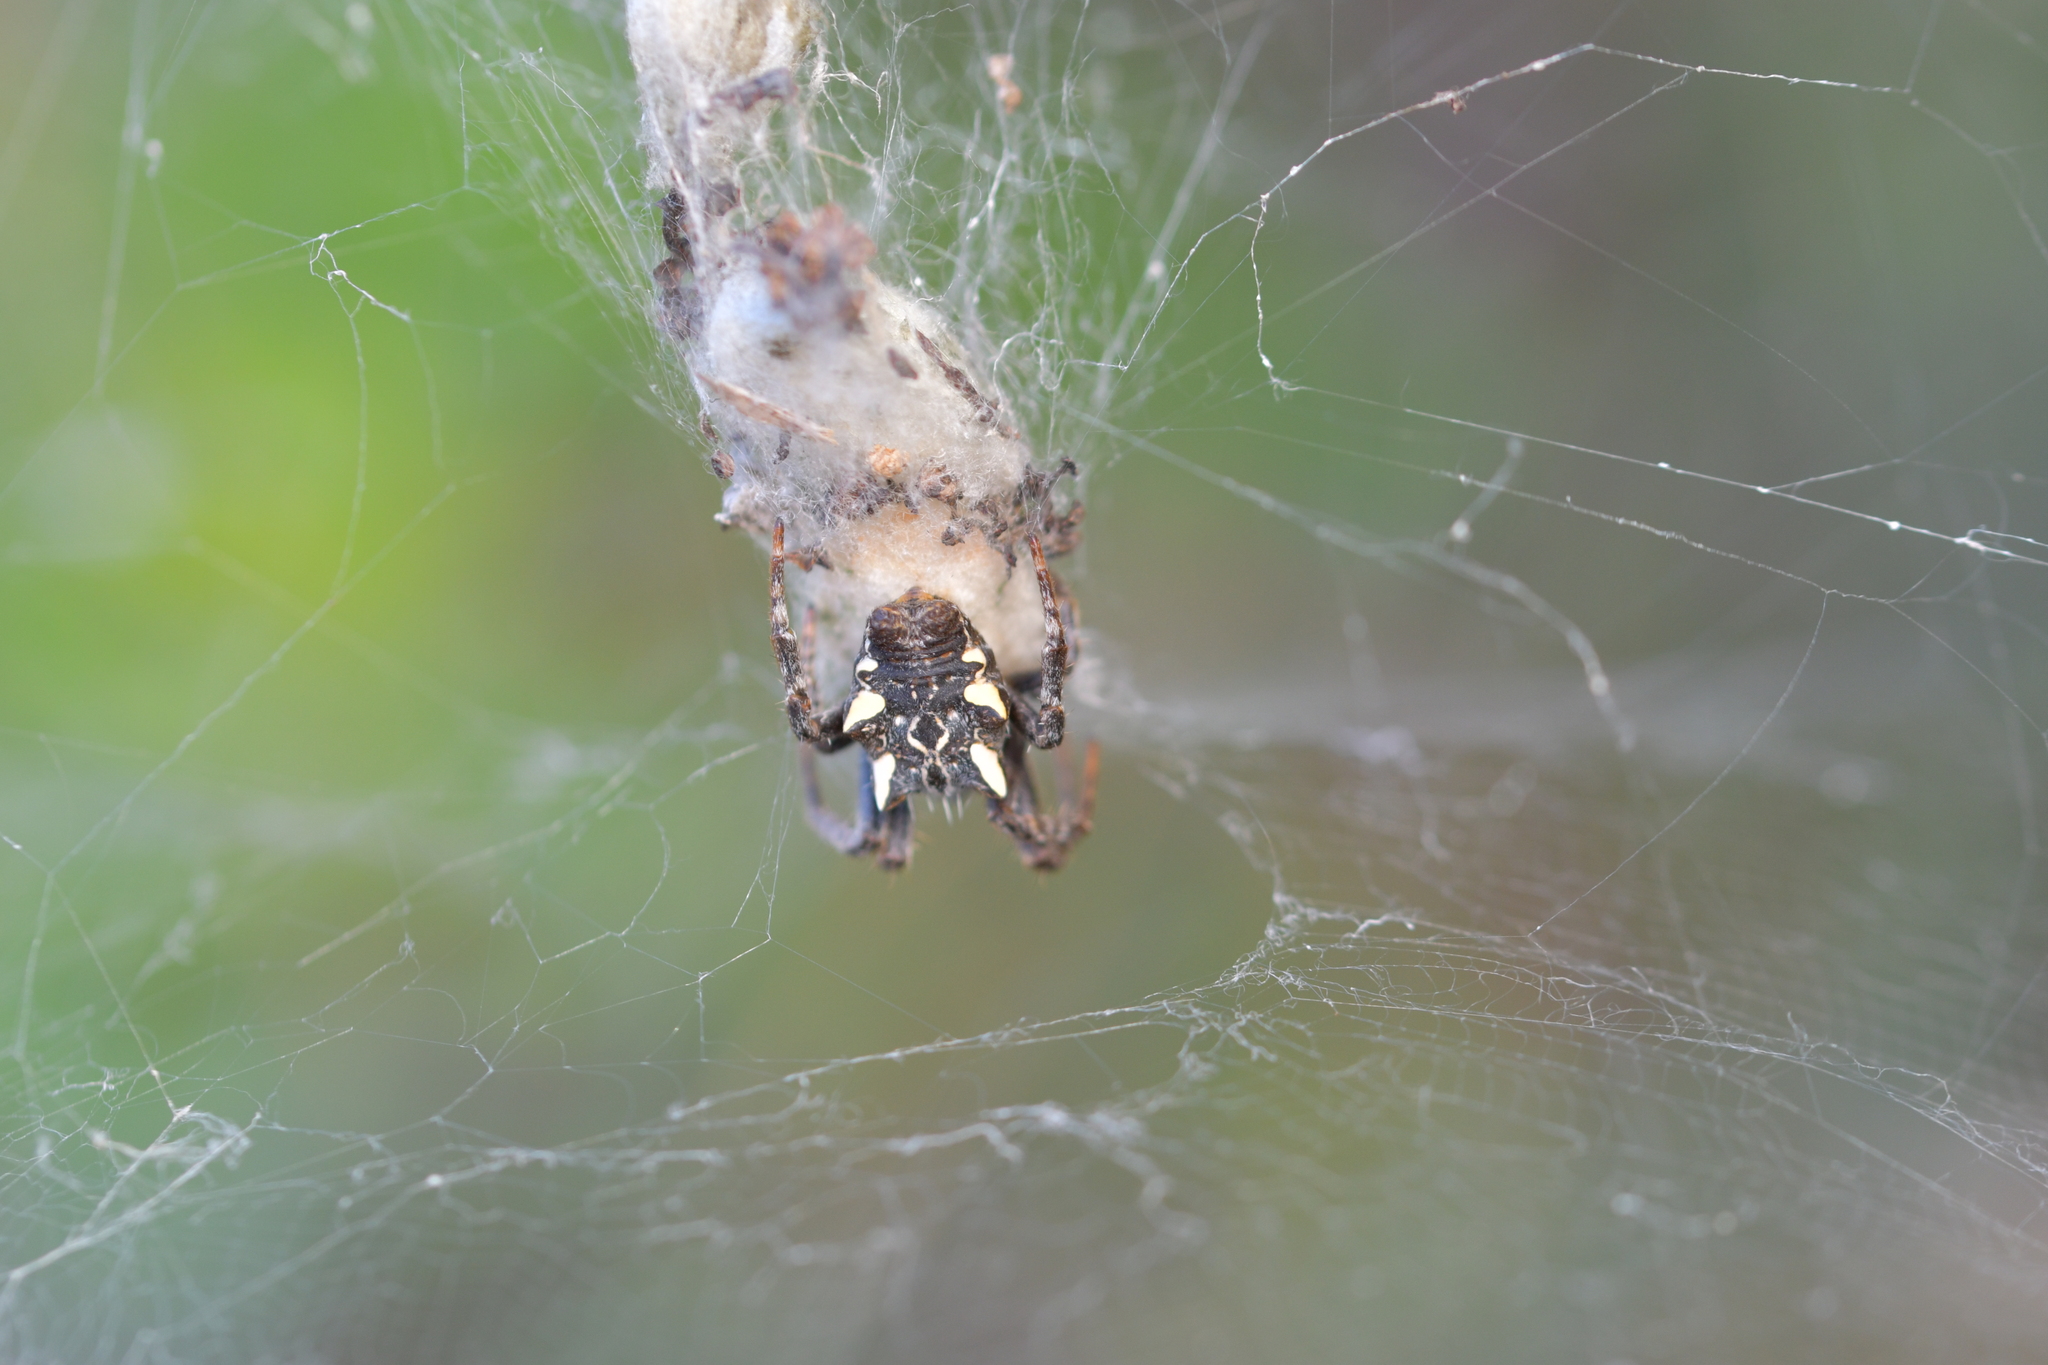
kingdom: Animalia
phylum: Arthropoda
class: Arachnida
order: Araneae
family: Araneidae
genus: Cyrtophora
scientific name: Cyrtophora citricola
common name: Orb weavers
